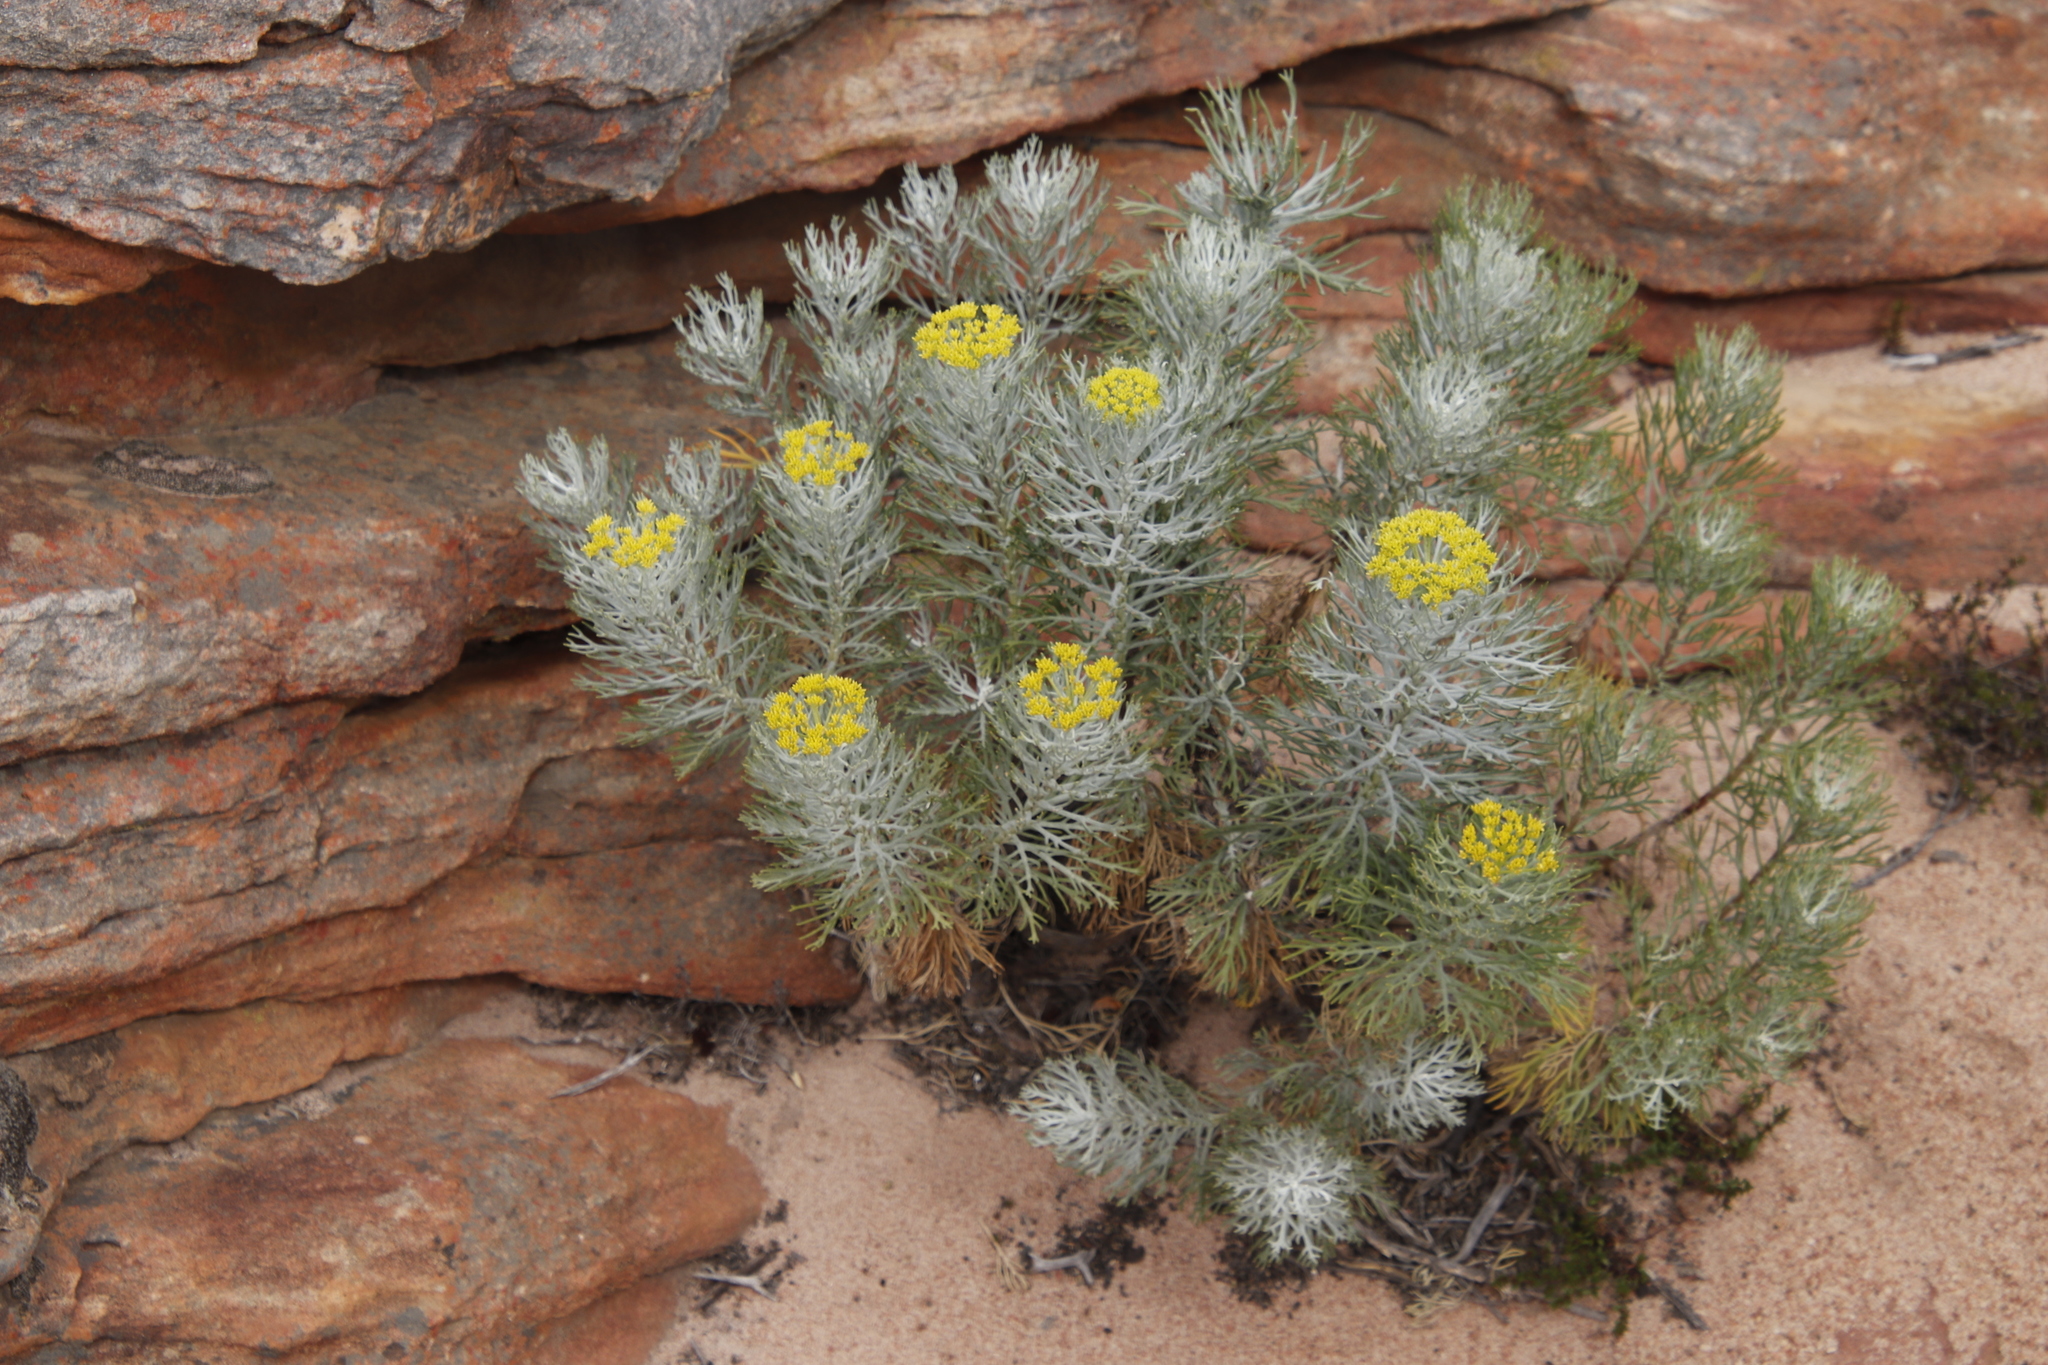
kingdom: Plantae
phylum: Tracheophyta
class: Magnoliopsida
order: Asterales
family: Asteraceae
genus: Hymenolepis
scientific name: Hymenolepis crithmifolia
